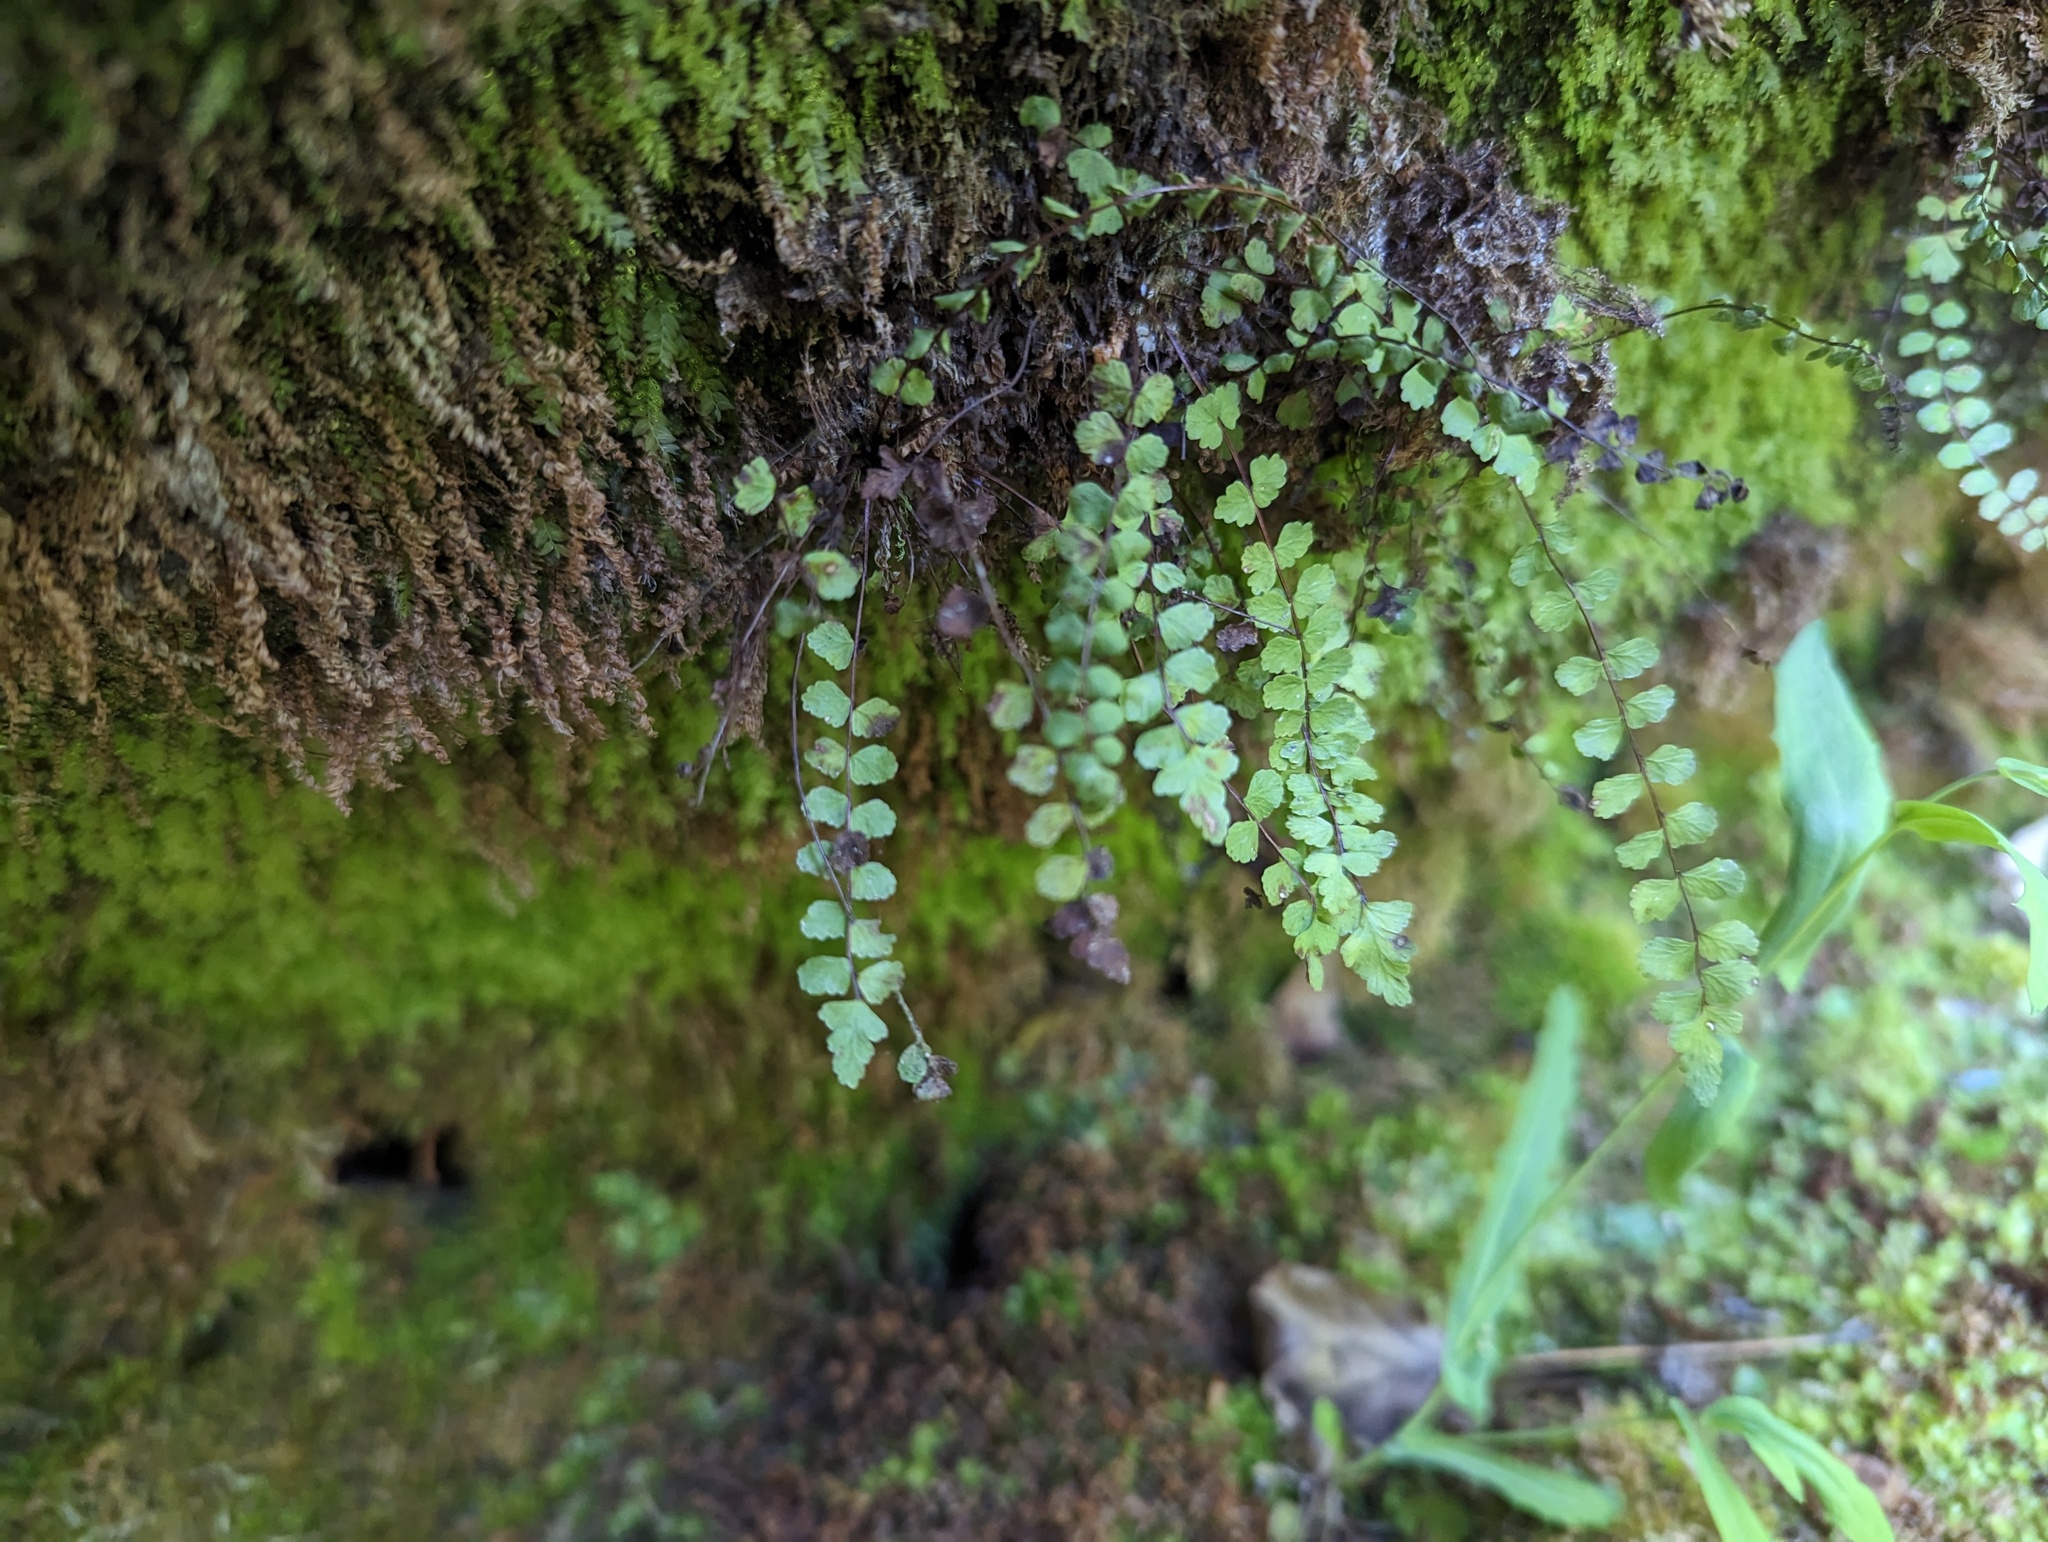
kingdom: Plantae
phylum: Tracheophyta
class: Polypodiopsida
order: Polypodiales
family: Aspleniaceae
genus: Asplenium
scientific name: Asplenium trichomanes
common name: Maidenhair spleenwort
